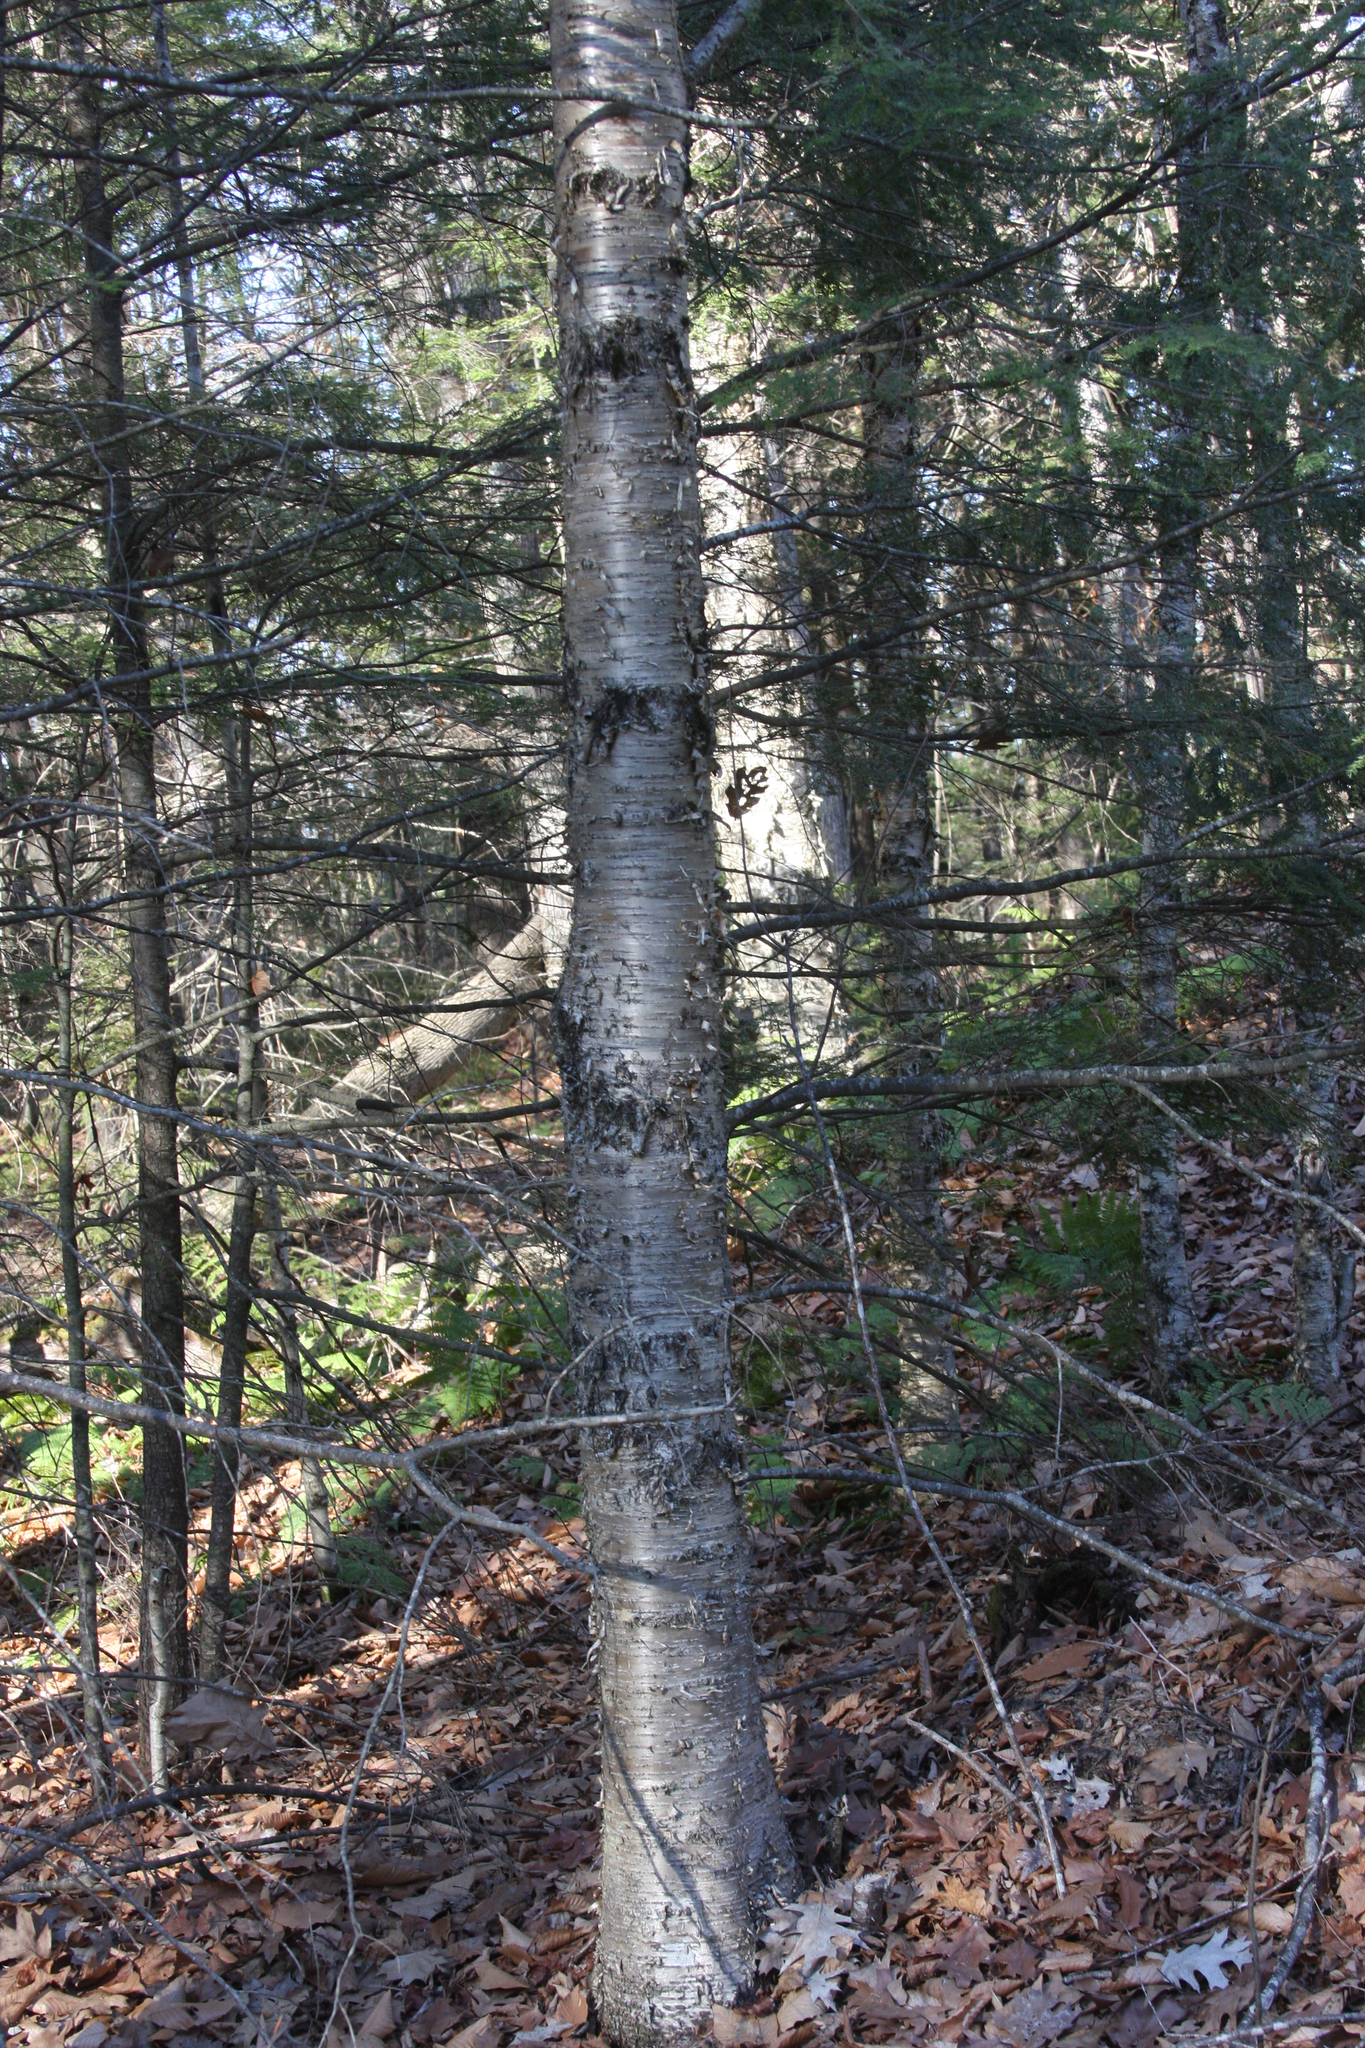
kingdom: Plantae
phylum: Tracheophyta
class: Magnoliopsida
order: Fagales
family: Betulaceae
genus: Betula
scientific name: Betula alleghaniensis
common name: Yellow birch
